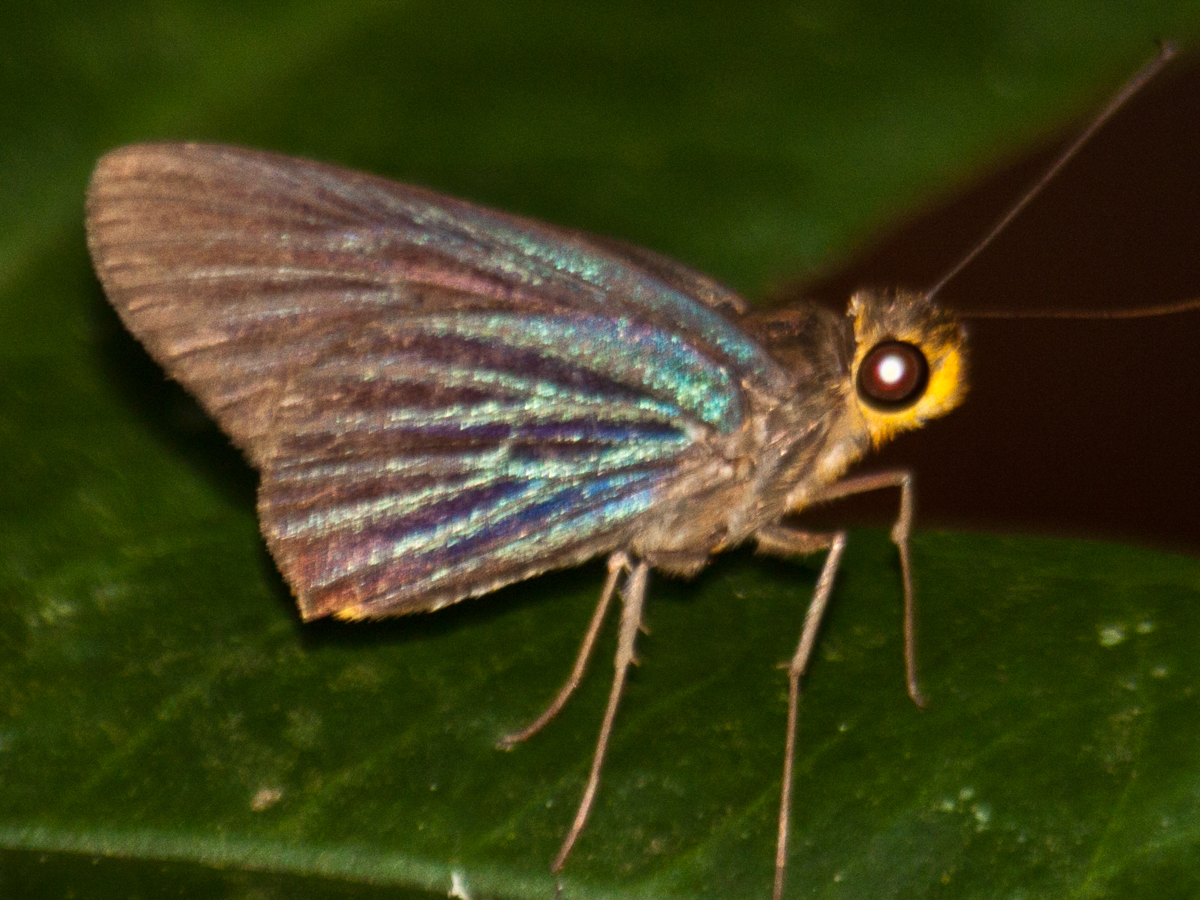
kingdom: Animalia
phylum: Arthropoda
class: Insecta
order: Lepidoptera
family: Hesperiidae
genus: Pirdana
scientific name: Pirdana hyela
